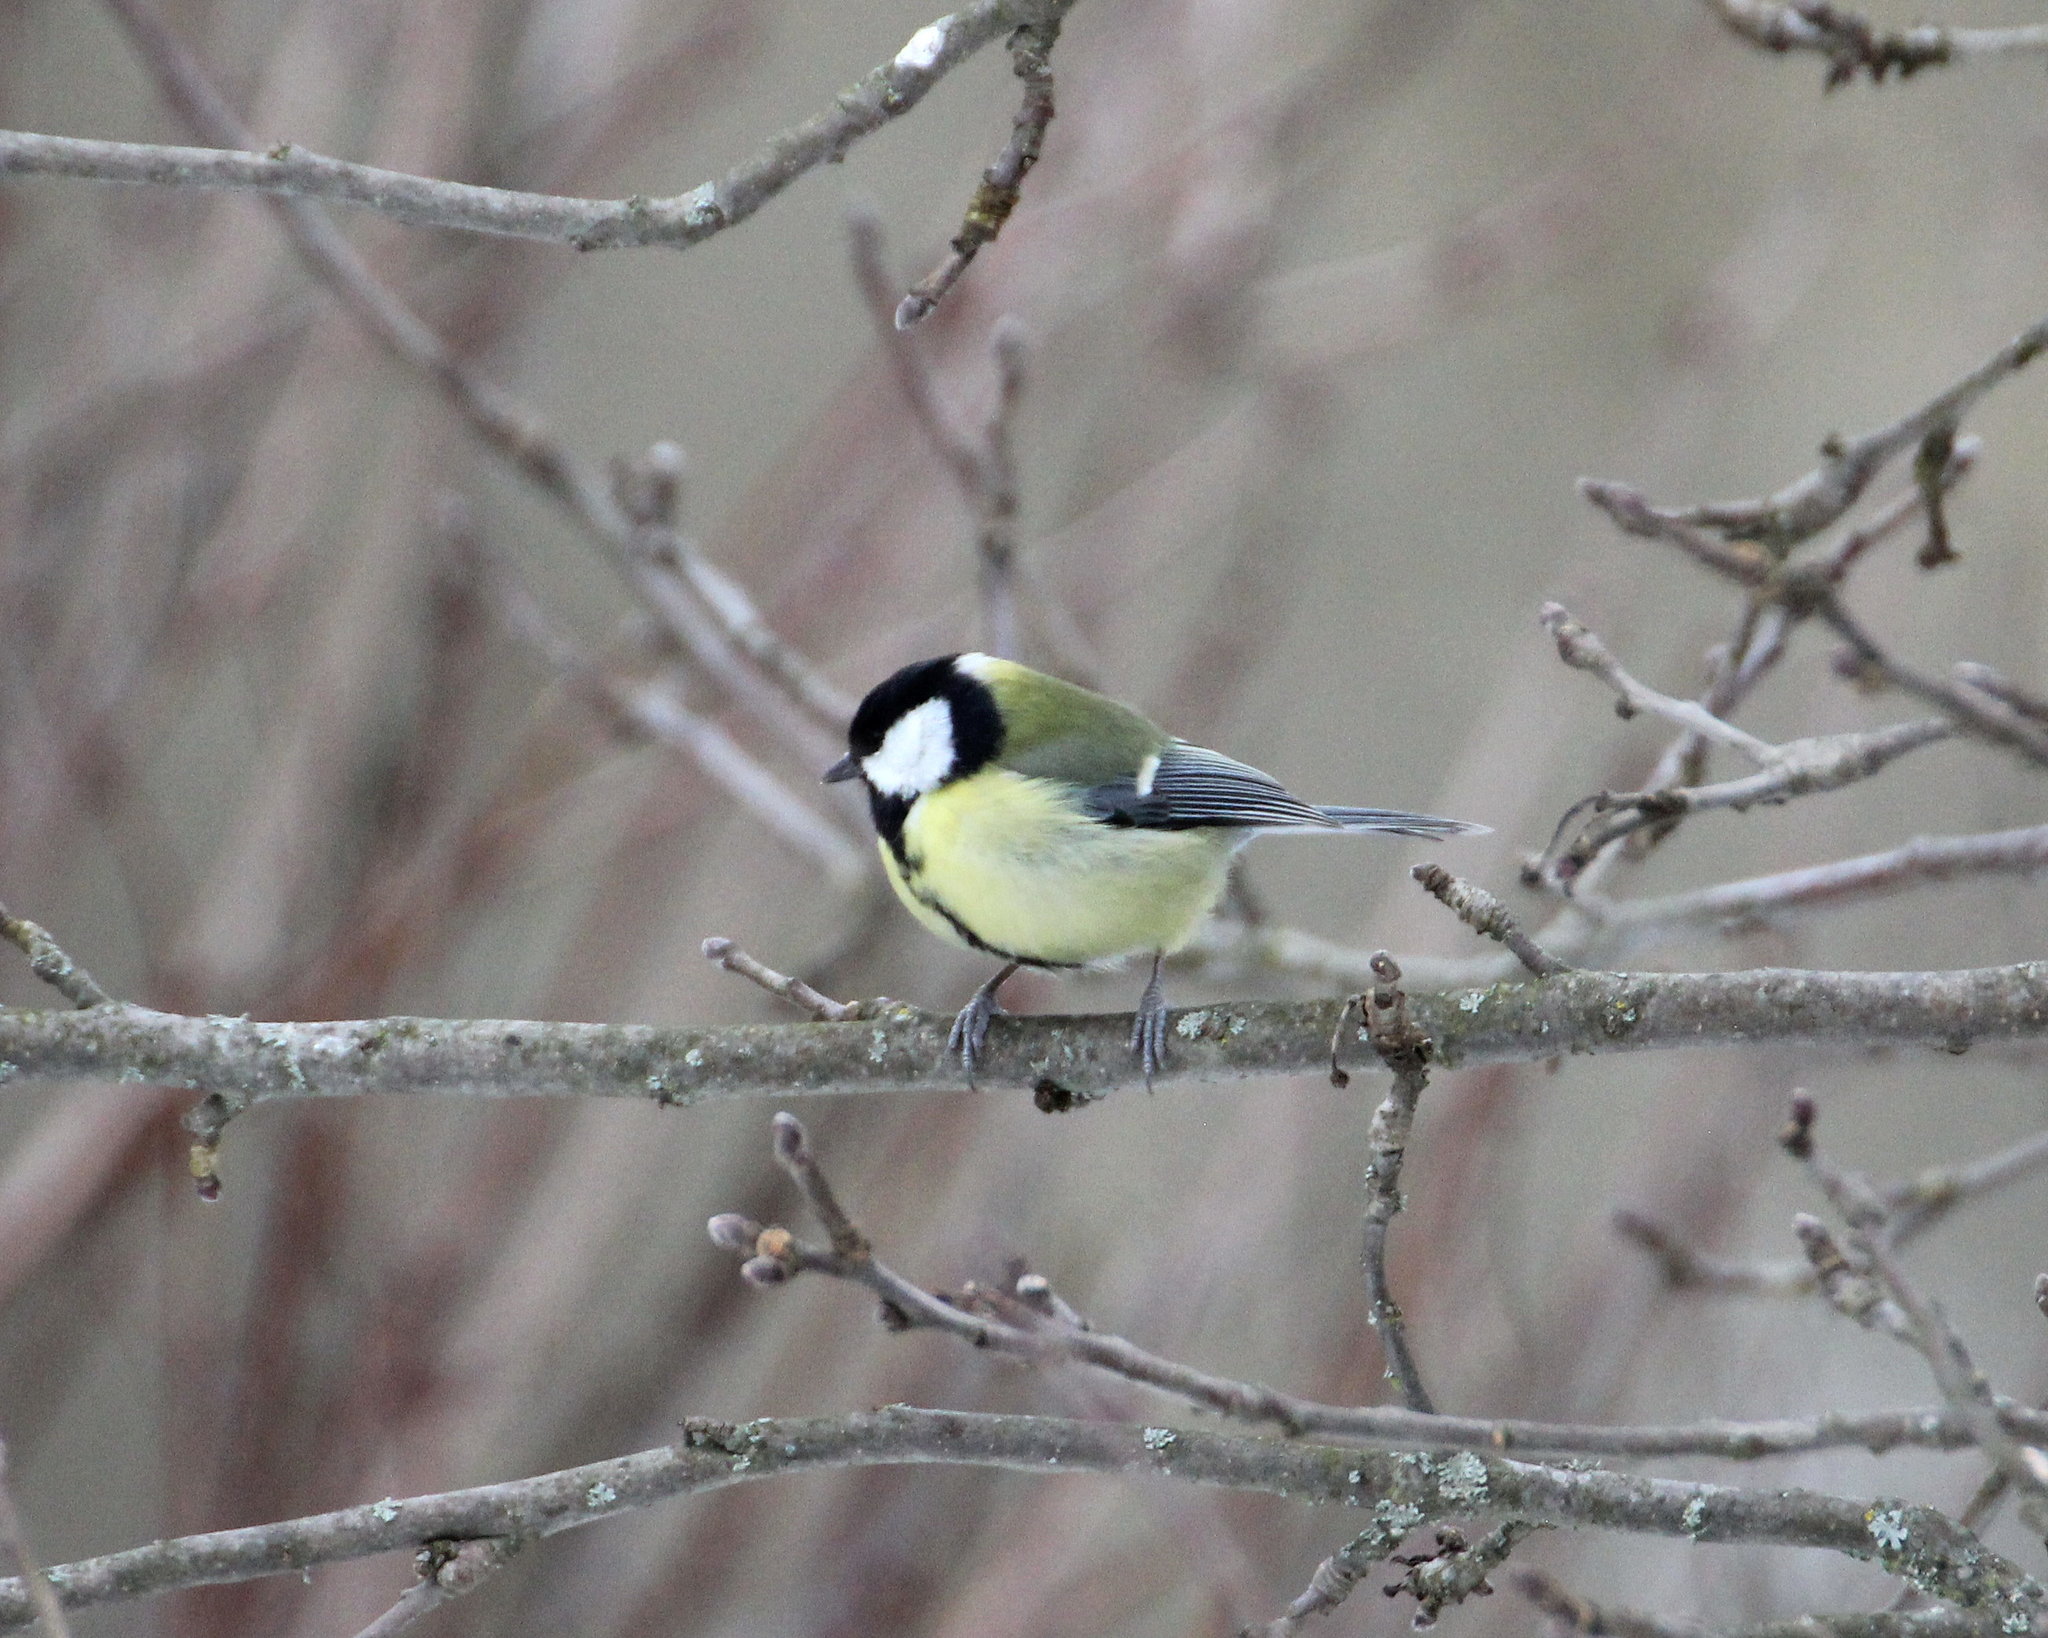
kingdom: Animalia
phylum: Chordata
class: Aves
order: Passeriformes
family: Paridae
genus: Parus
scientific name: Parus major
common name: Great tit
